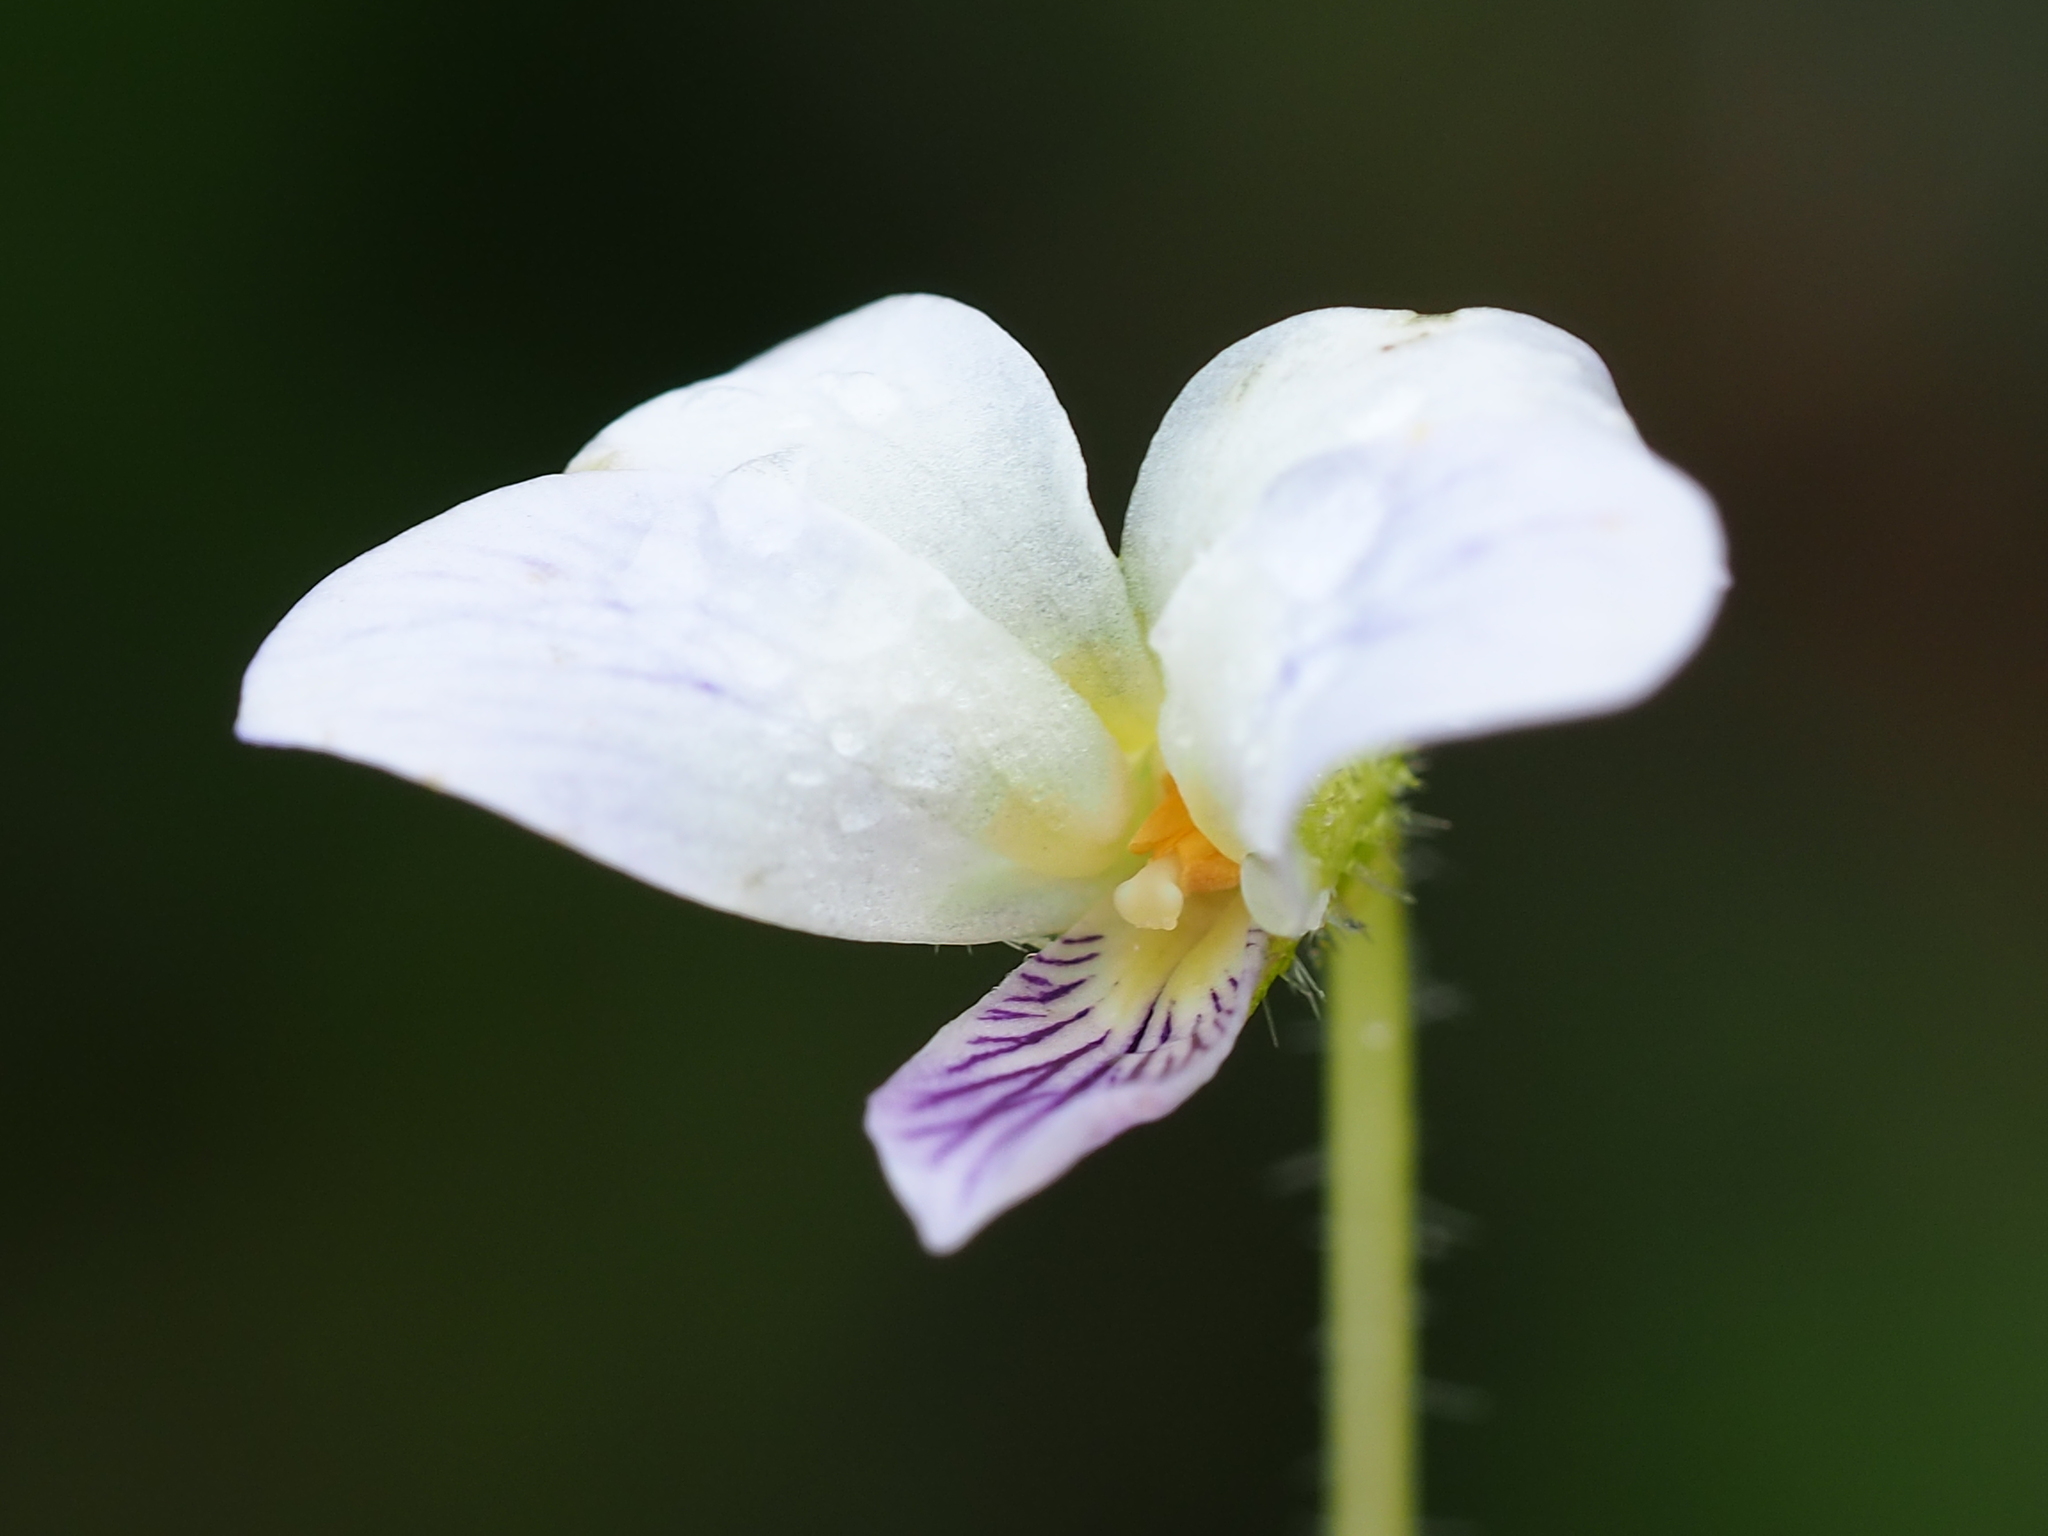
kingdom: Plantae
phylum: Tracheophyta
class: Magnoliopsida
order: Malpighiales
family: Violaceae
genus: Viola
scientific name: Viola nagasawae
